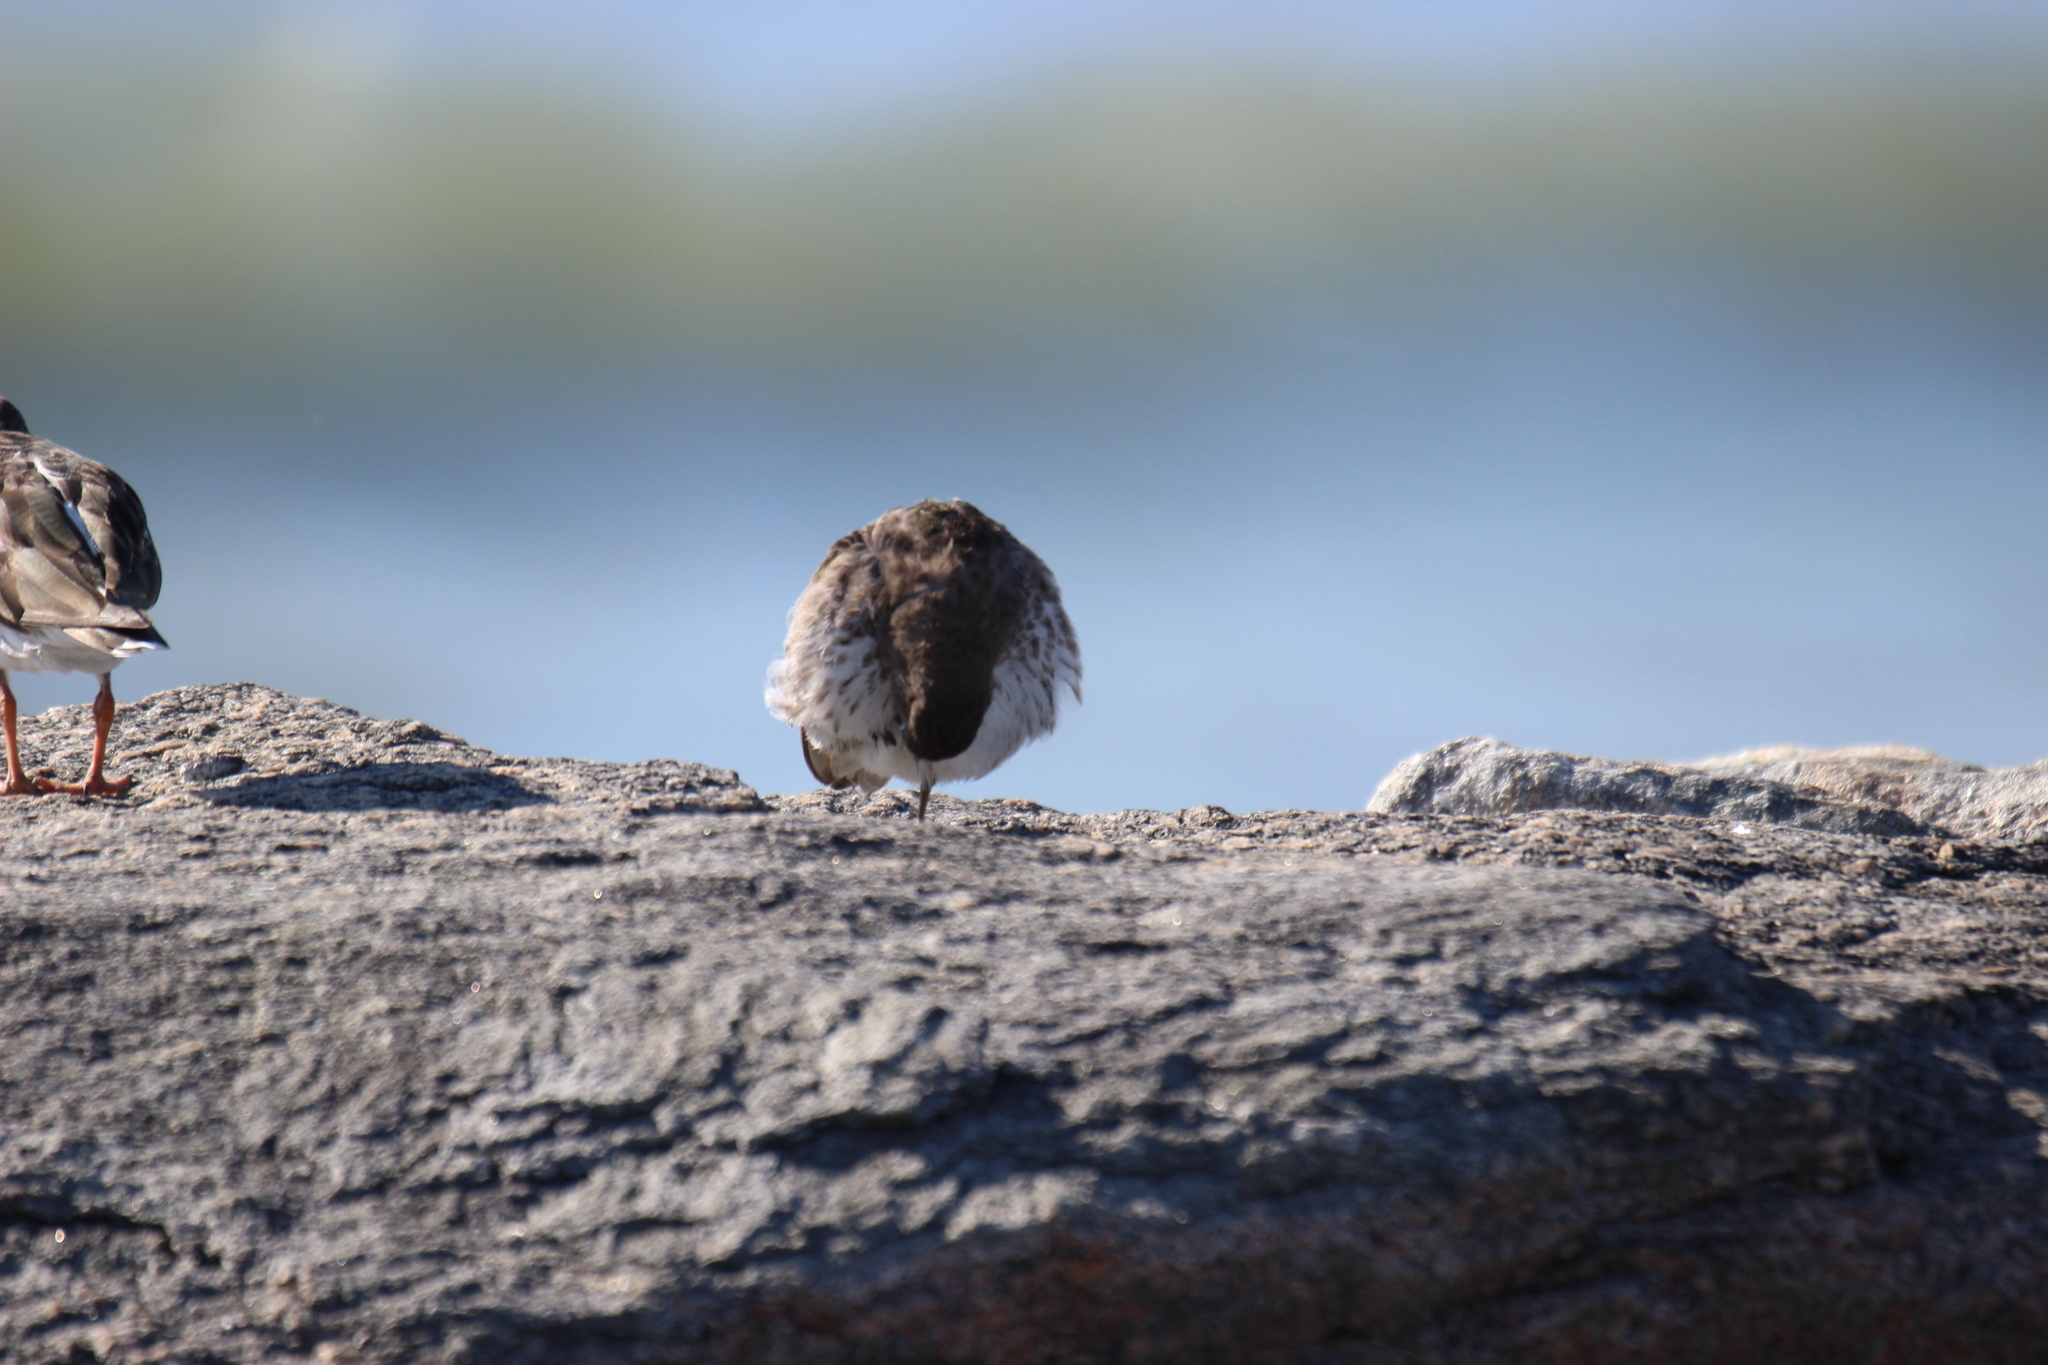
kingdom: Animalia
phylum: Chordata
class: Aves
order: Charadriiformes
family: Scolopacidae
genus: Calidris
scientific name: Calidris maritima
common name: Purple sandpiper
